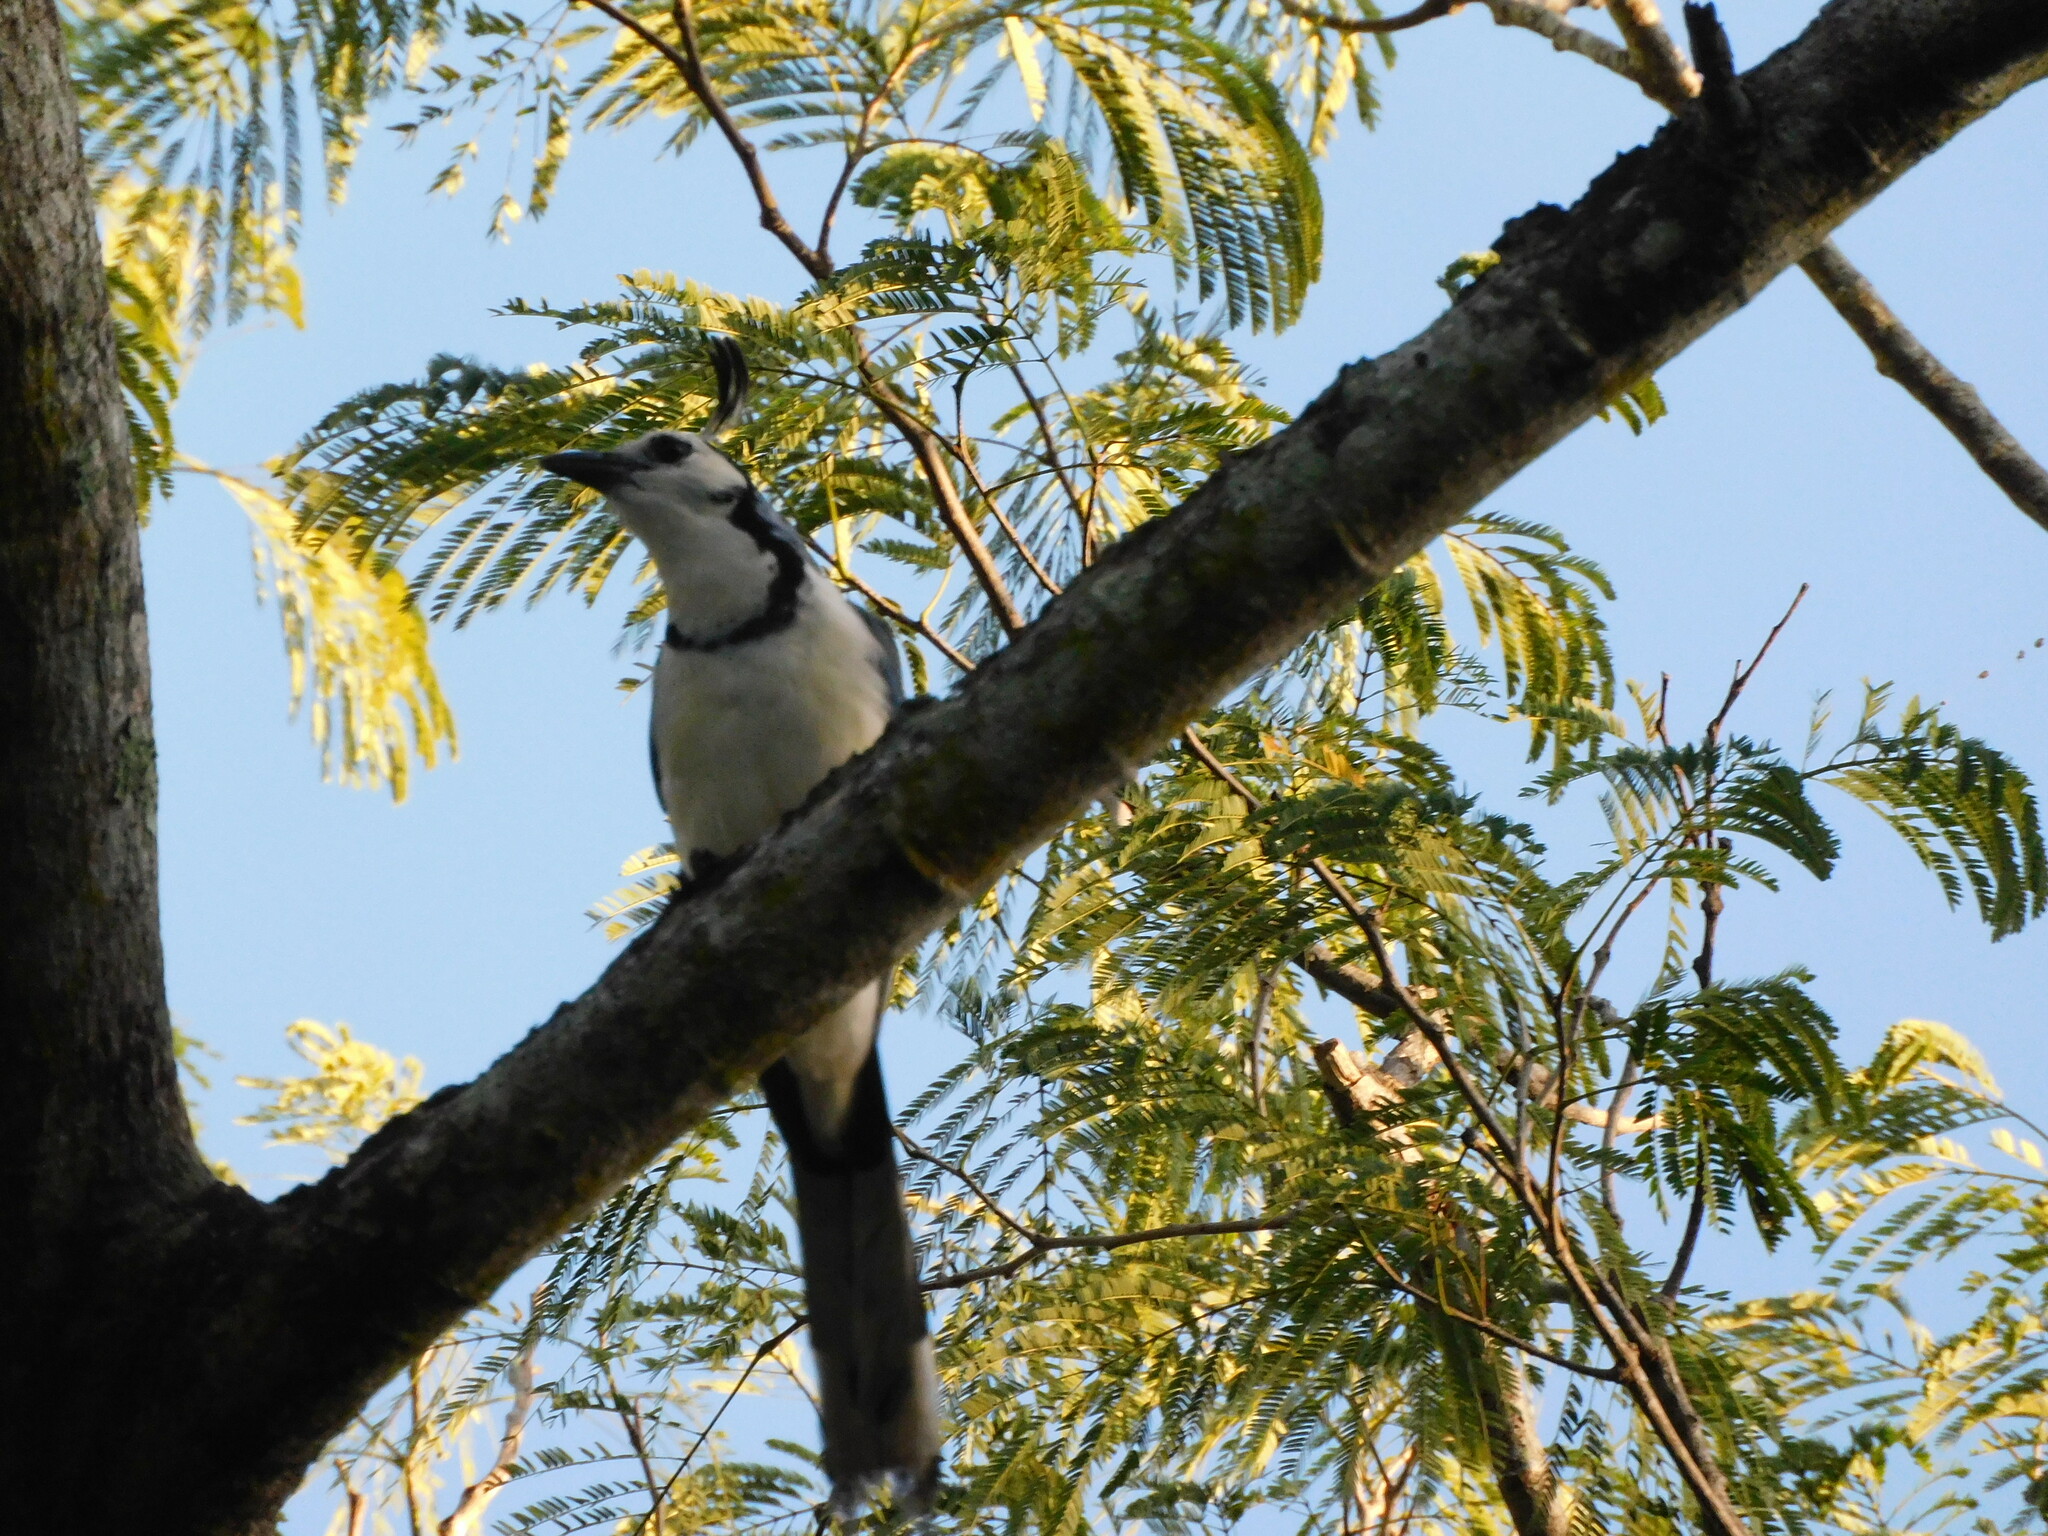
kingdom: Animalia
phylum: Chordata
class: Aves
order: Passeriformes
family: Corvidae
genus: Calocitta
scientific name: Calocitta formosa
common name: White-throated magpie-jay
